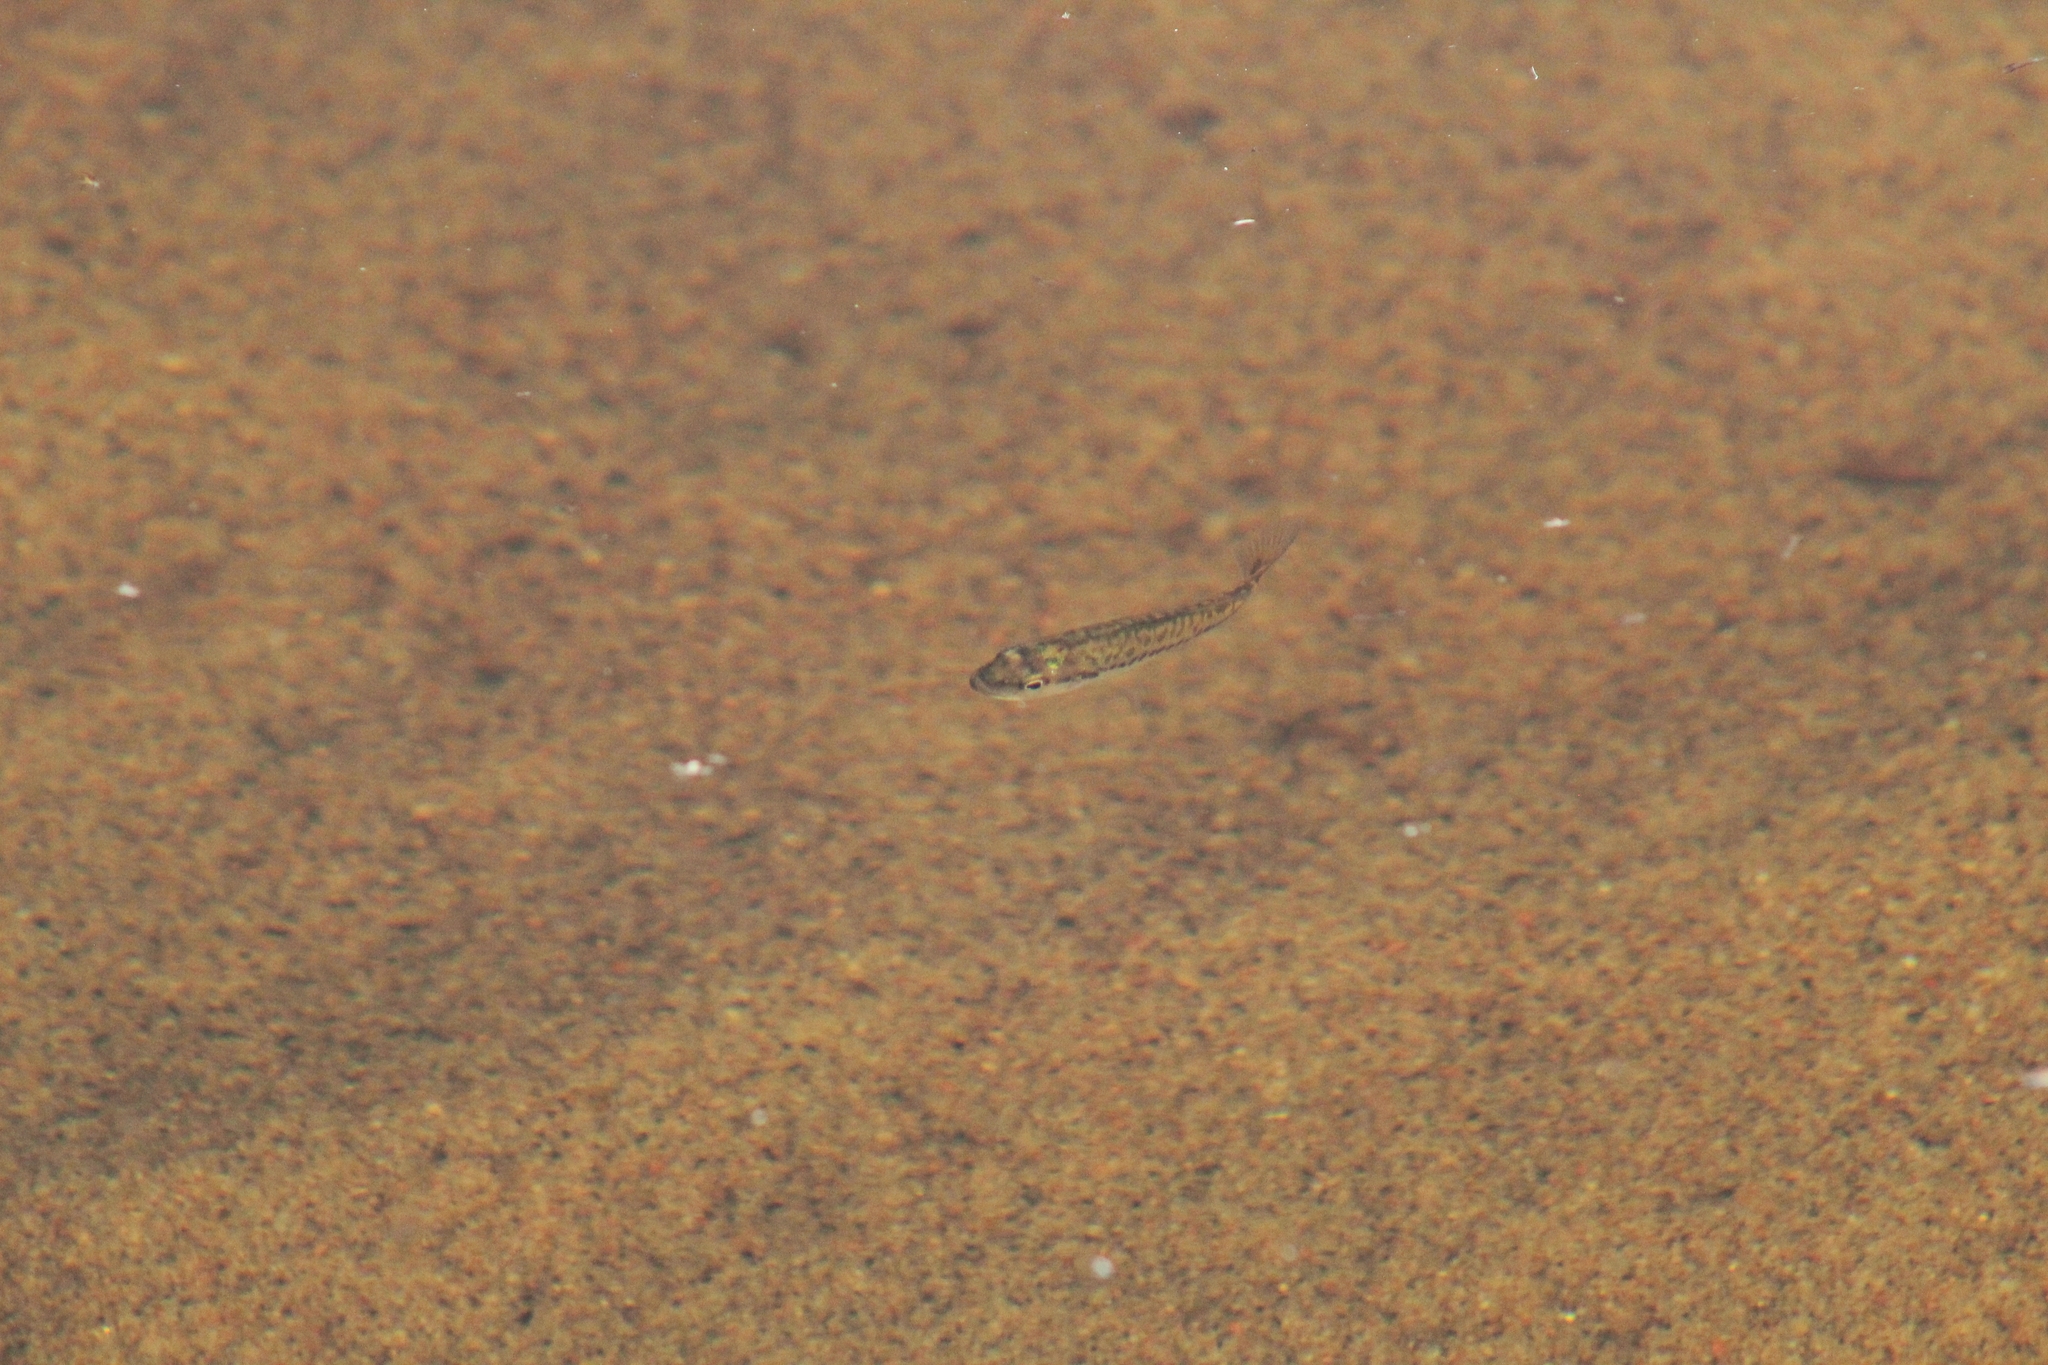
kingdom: Animalia
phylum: Chordata
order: Perciformes
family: Centrarchidae
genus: Micropterus
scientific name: Micropterus
